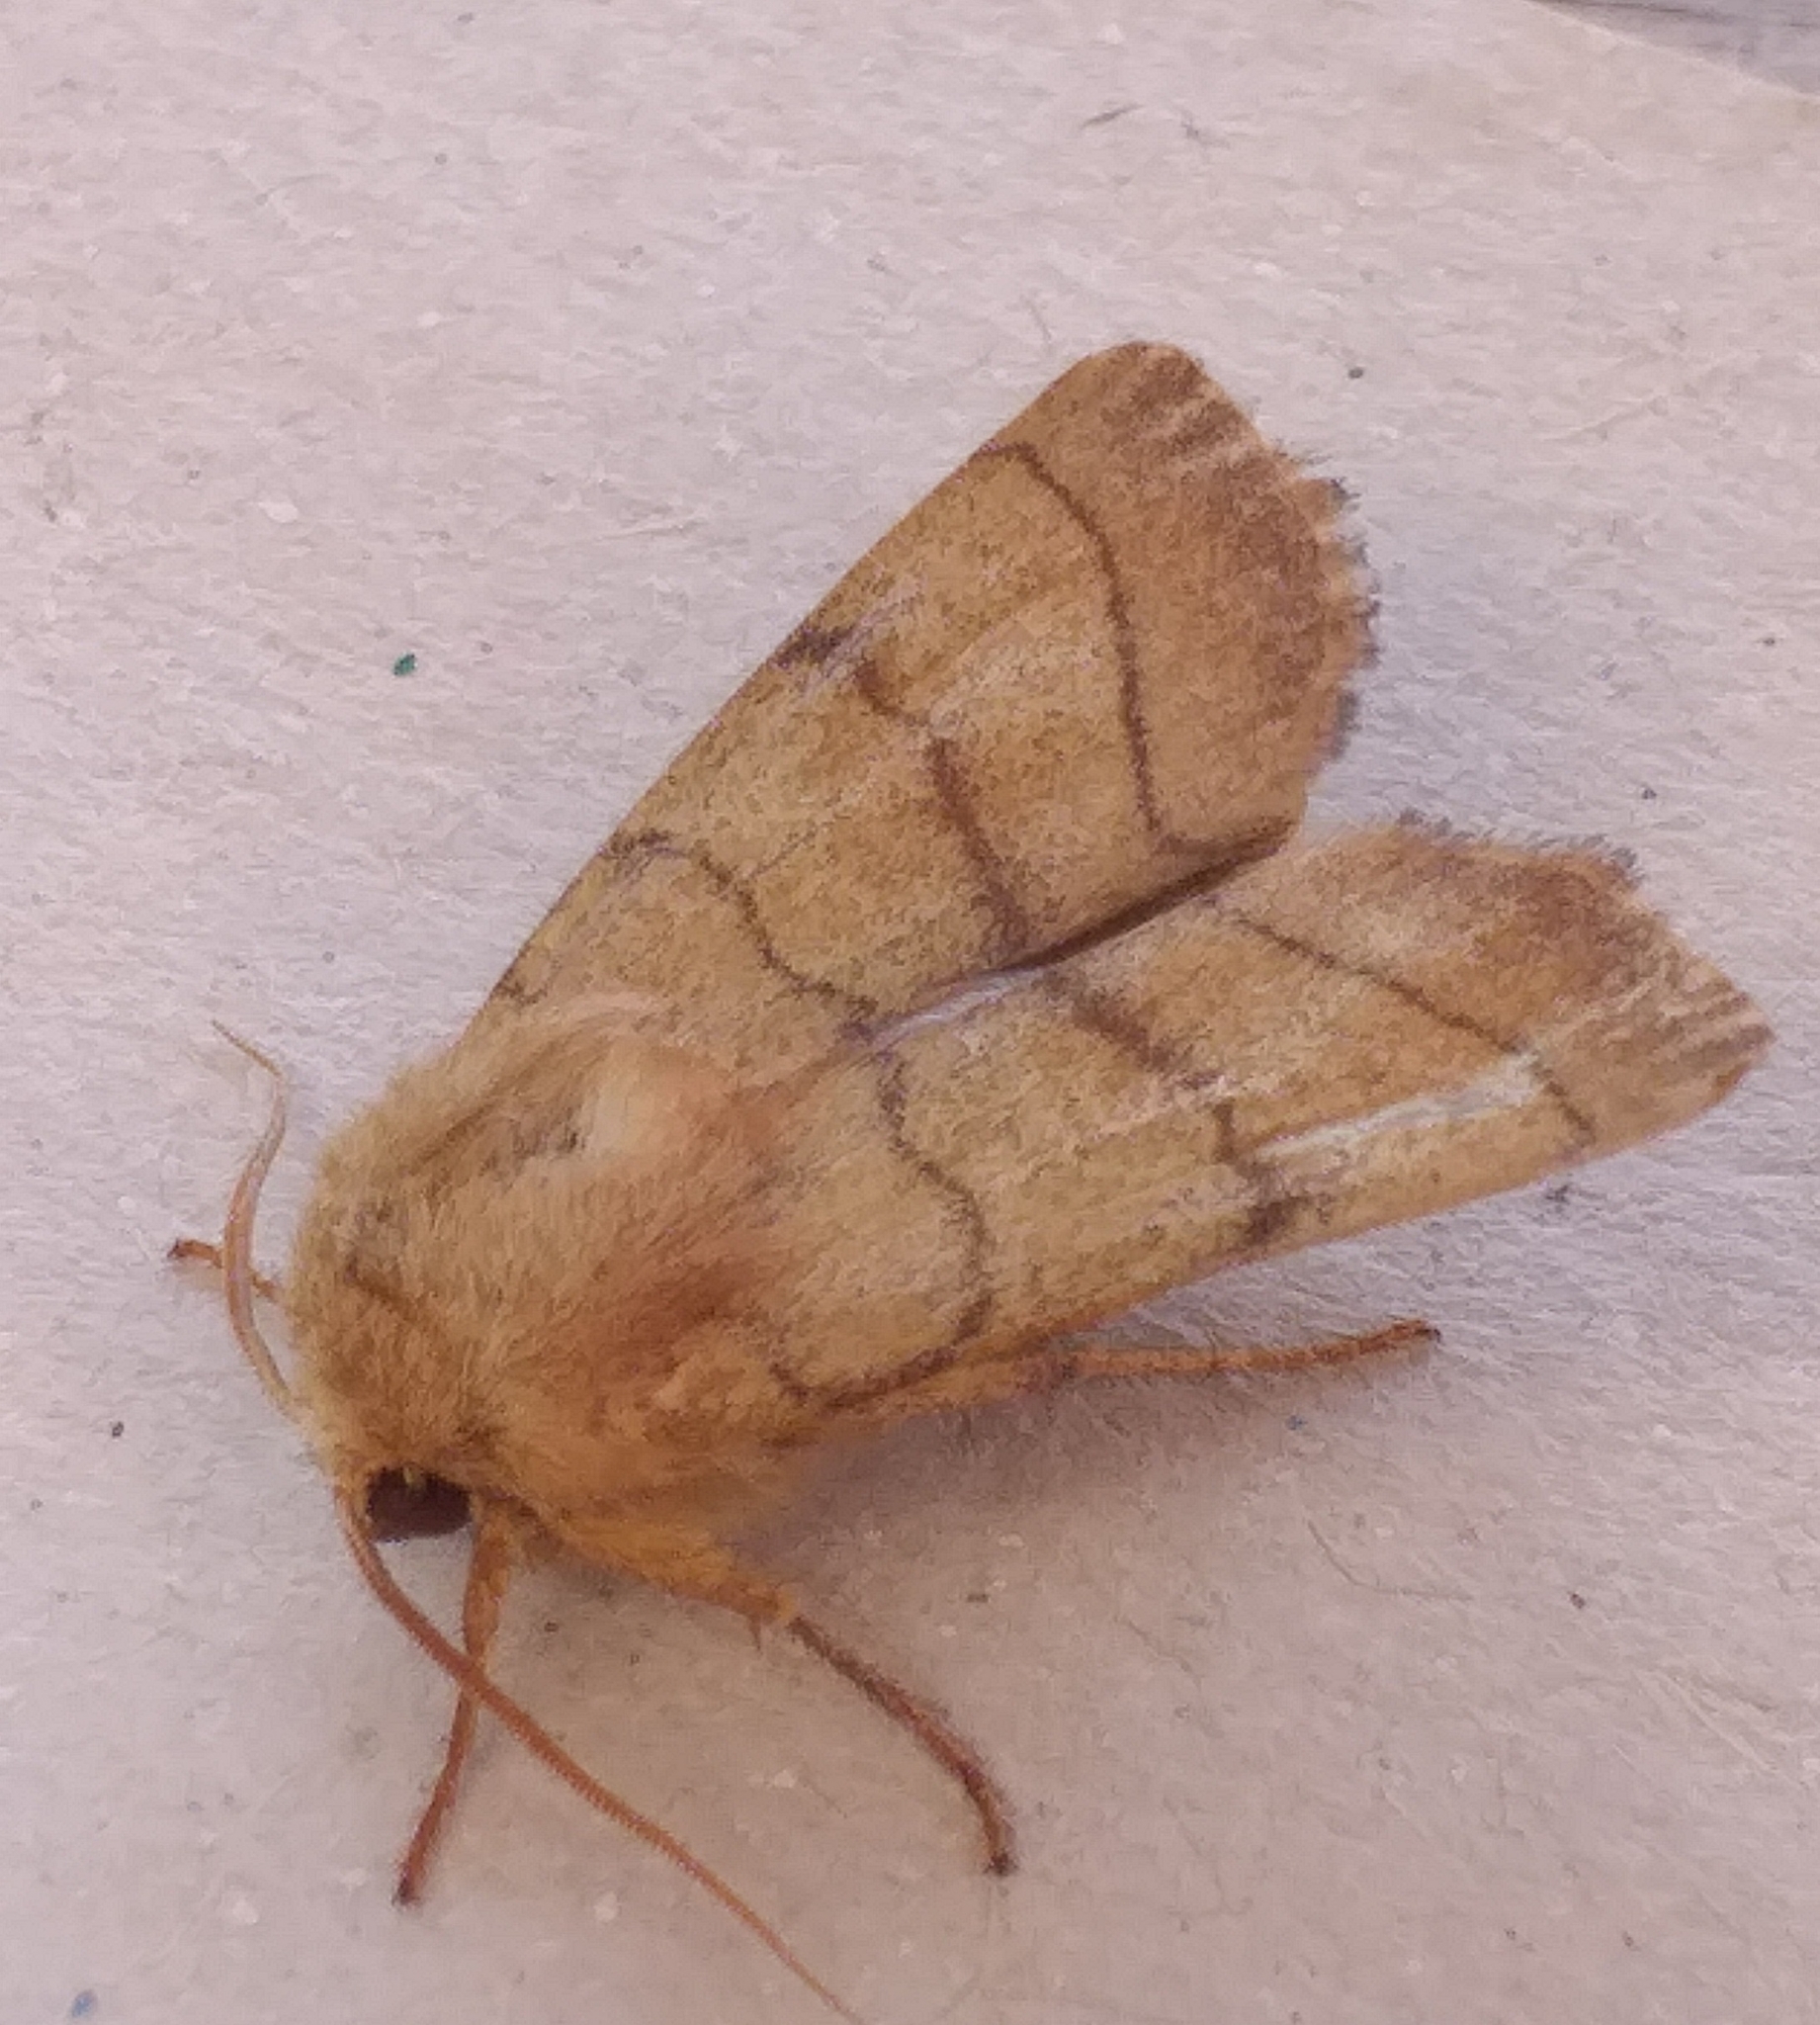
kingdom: Animalia
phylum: Arthropoda
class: Insecta
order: Lepidoptera
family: Noctuidae
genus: Charanyca
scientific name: Charanyca trigrammica
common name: Treble lines
